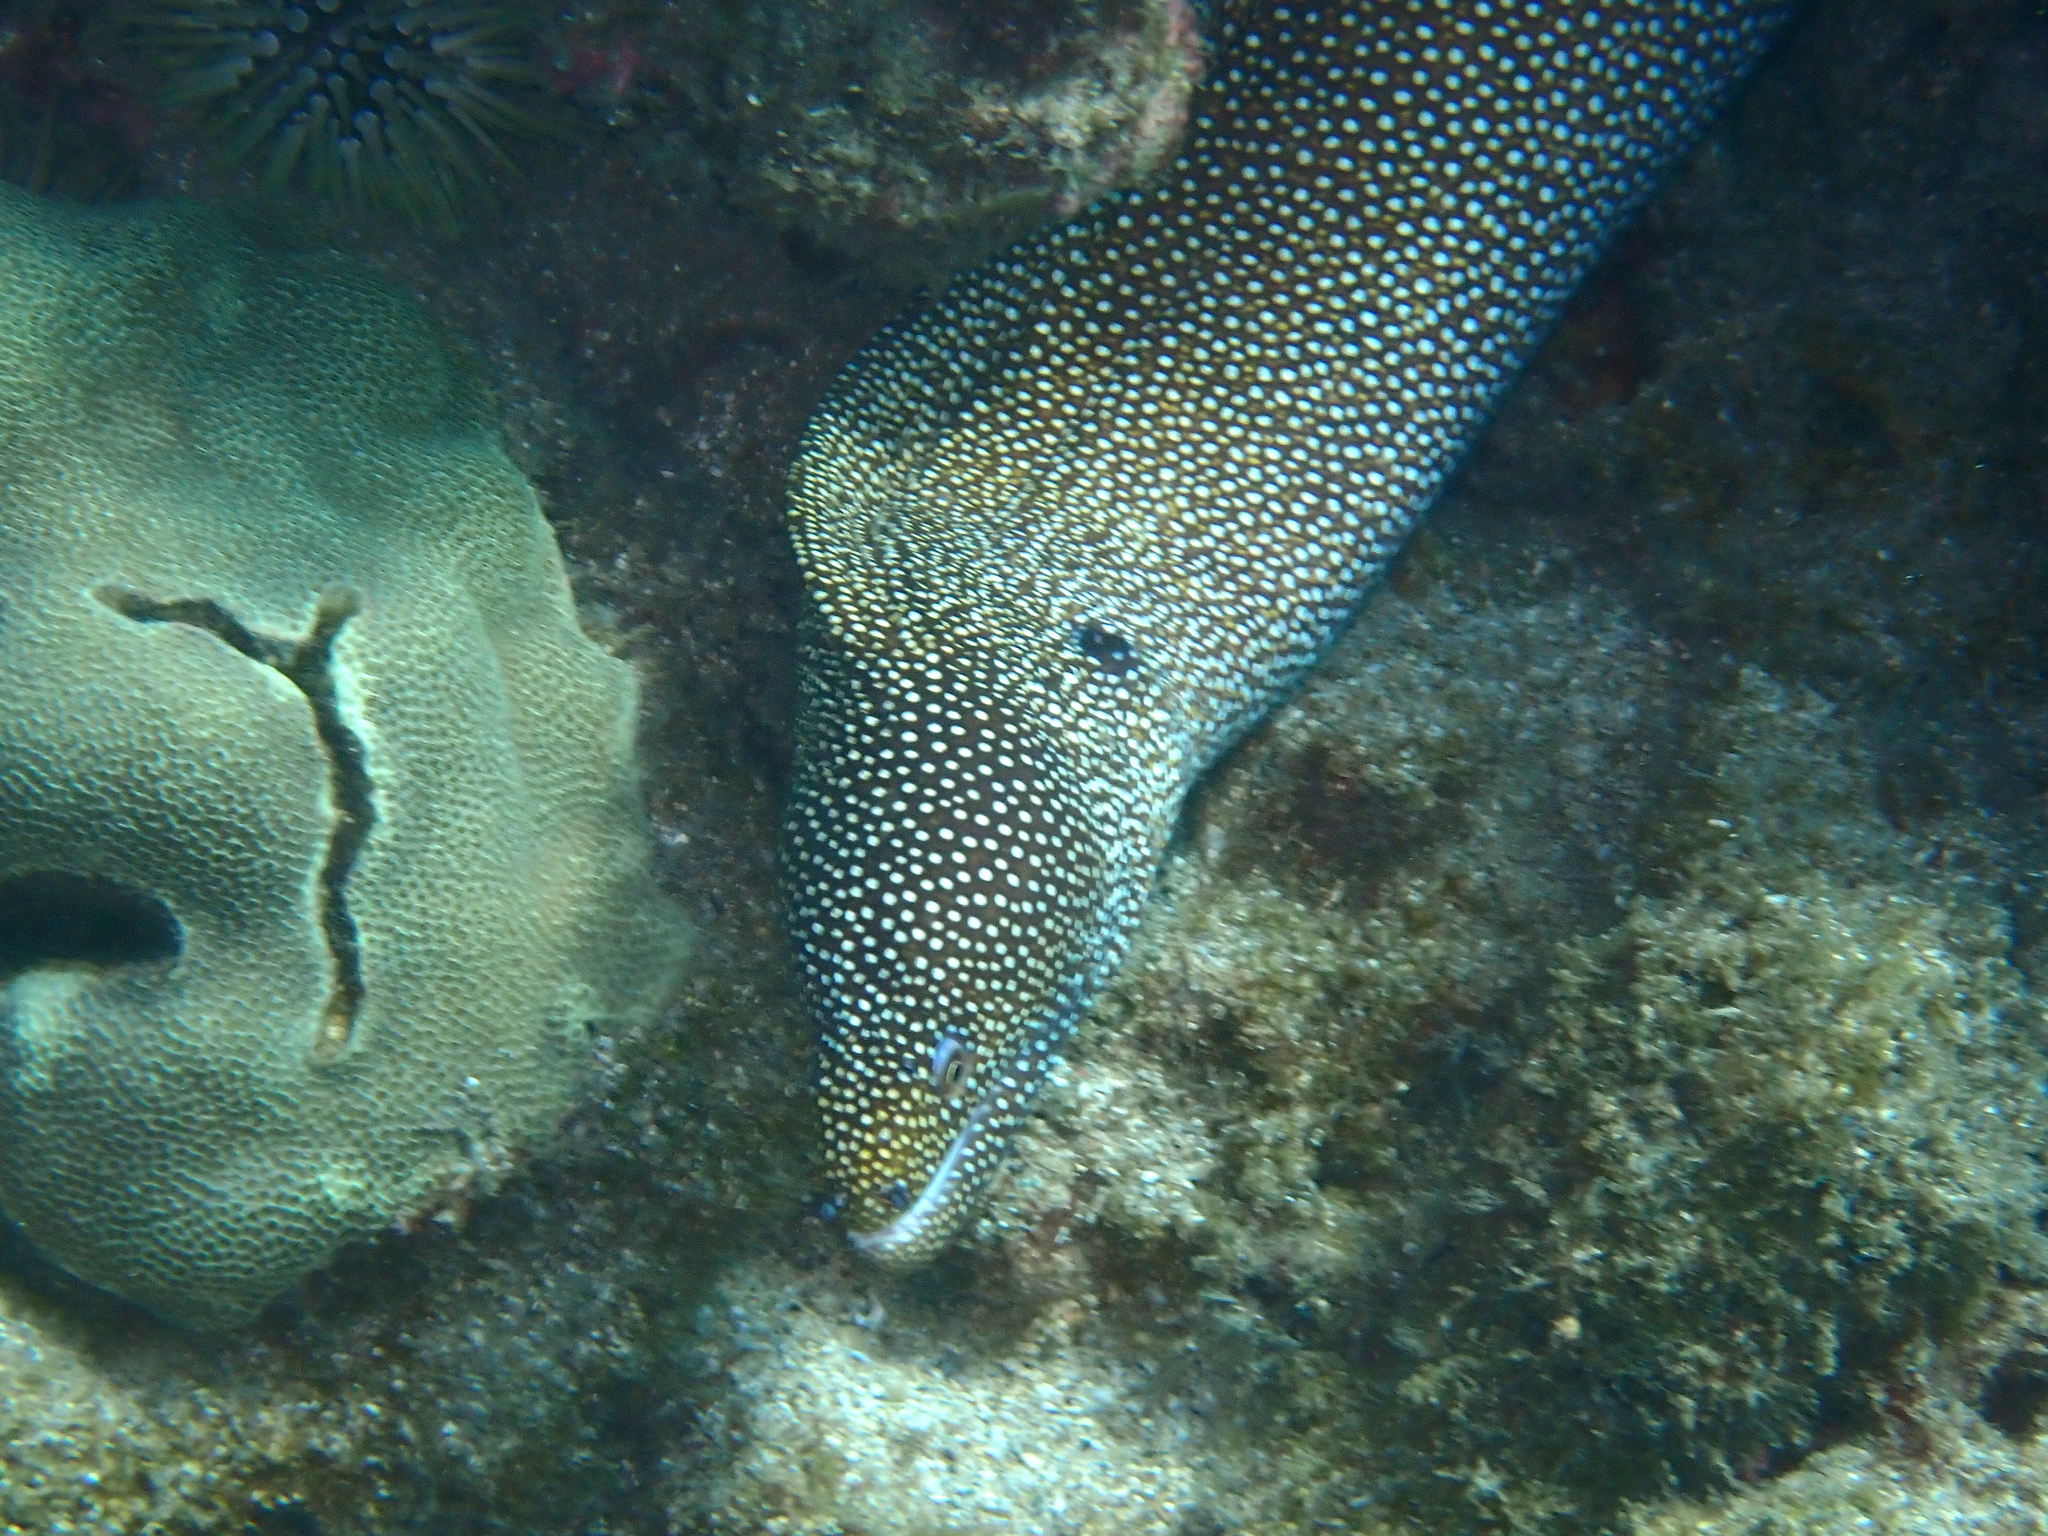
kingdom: Animalia
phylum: Chordata
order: Anguilliformes
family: Muraenidae
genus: Gymnothorax
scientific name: Gymnothorax meleagris
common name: Guineafowl moray
